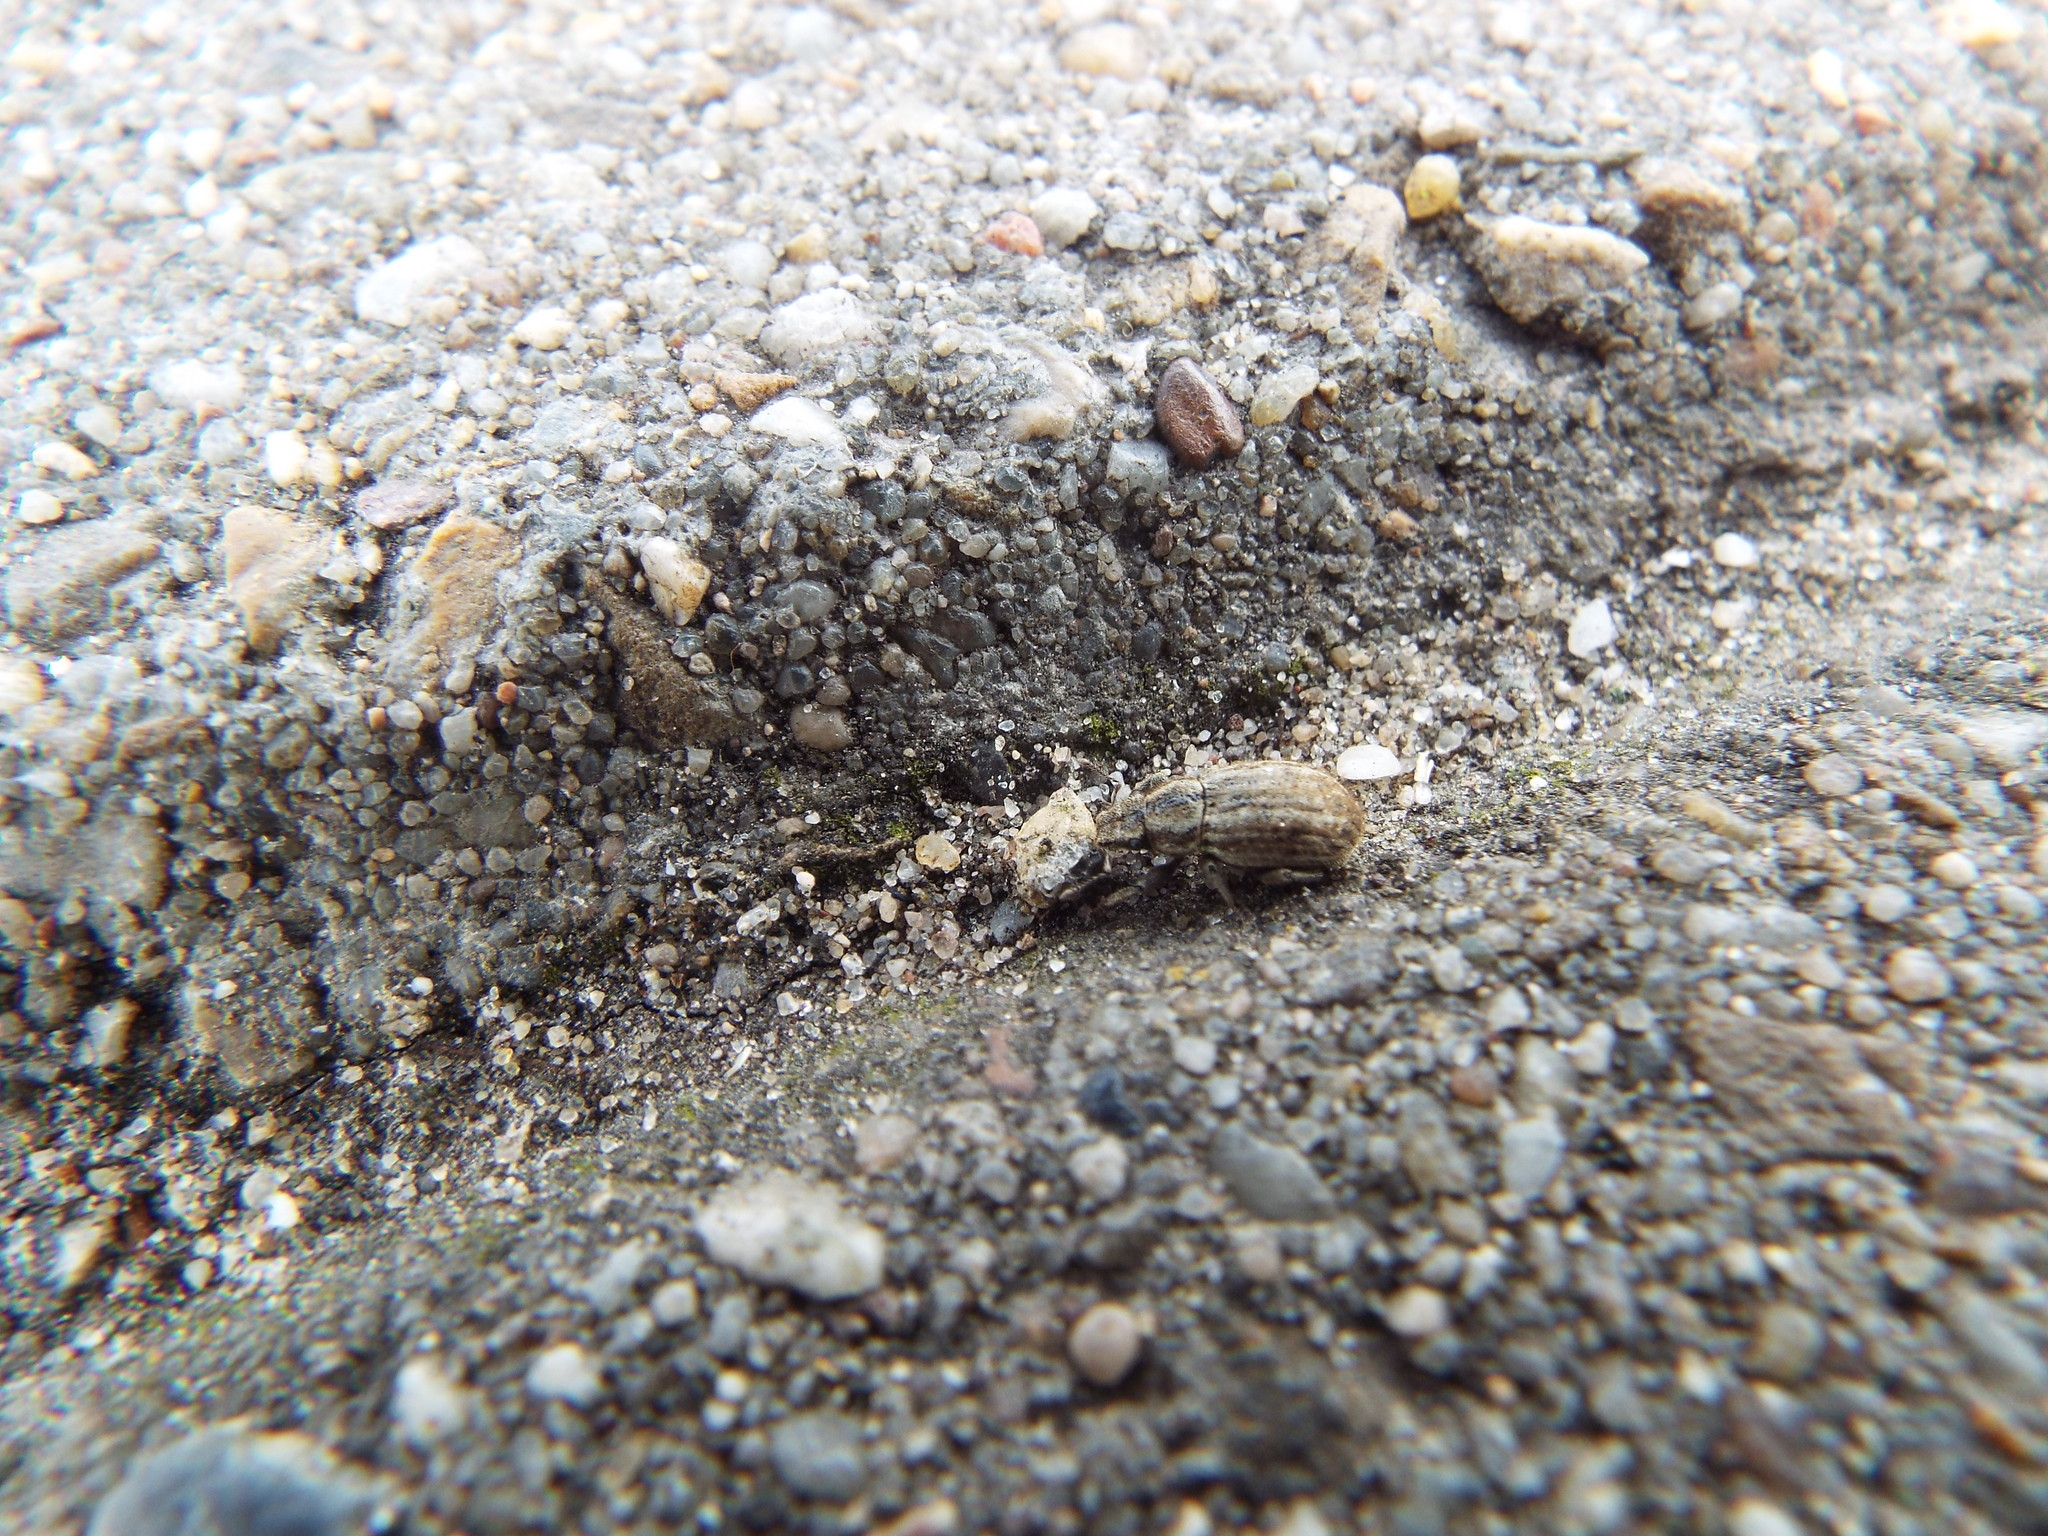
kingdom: Animalia
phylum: Arthropoda
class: Insecta
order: Coleoptera
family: Curculionidae
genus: Strophosoma
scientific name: Strophosoma faber
